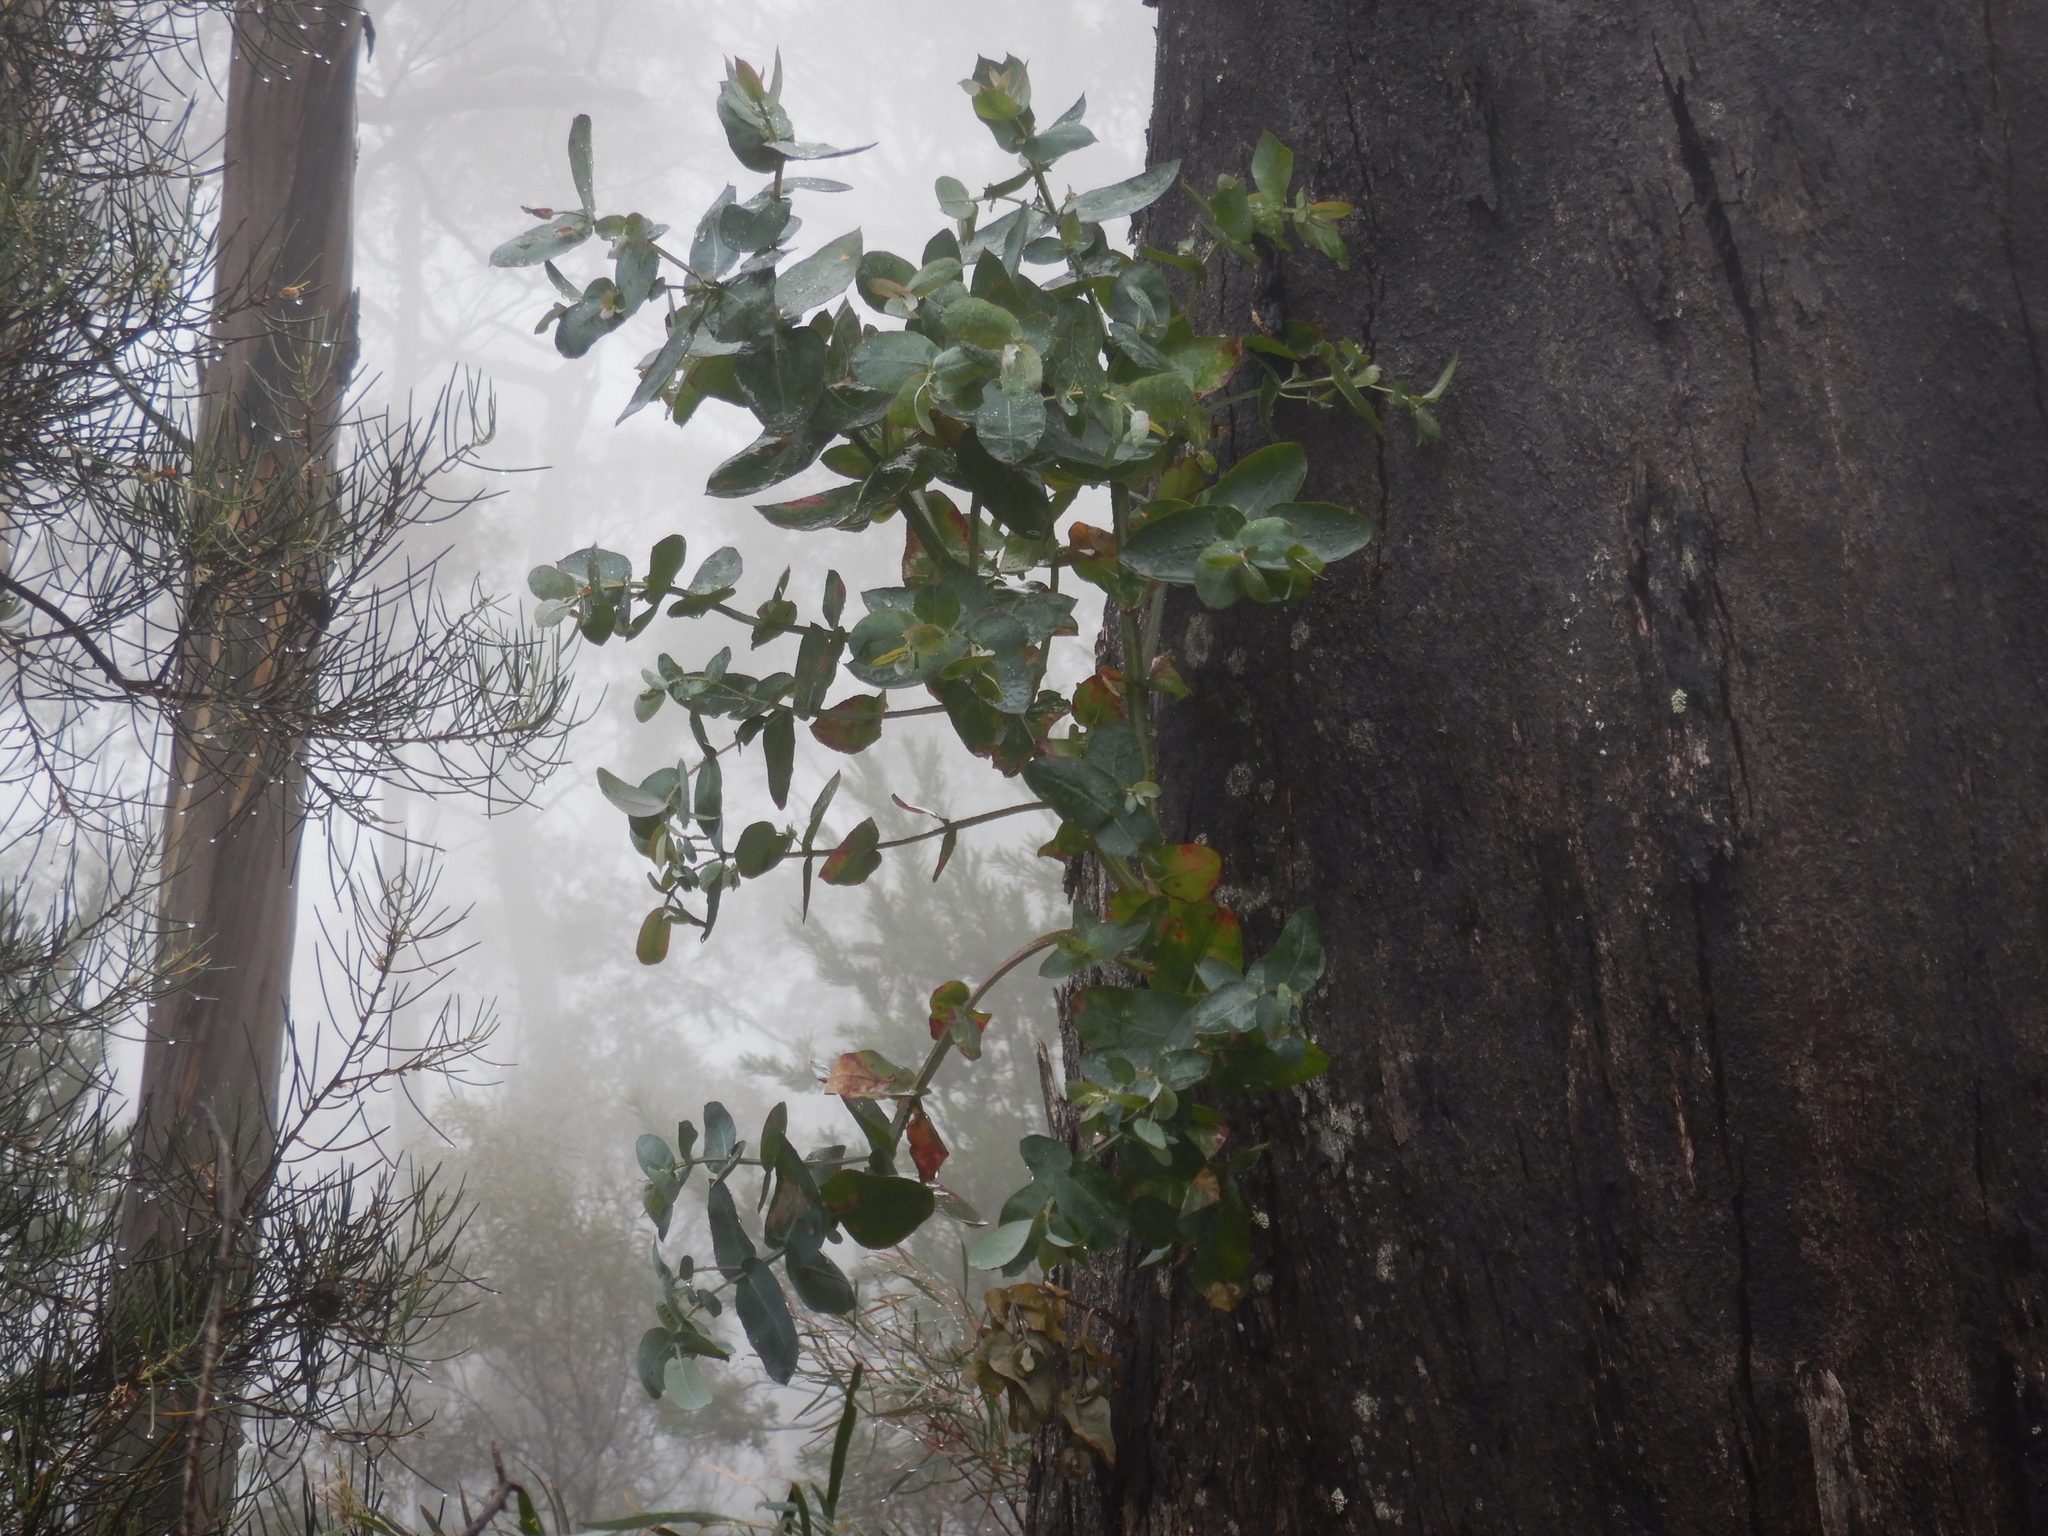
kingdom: Plantae
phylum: Tracheophyta
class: Magnoliopsida
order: Myrtales
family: Myrtaceae
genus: Eucalyptus
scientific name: Eucalyptus globulus
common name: Southern blue-gum
